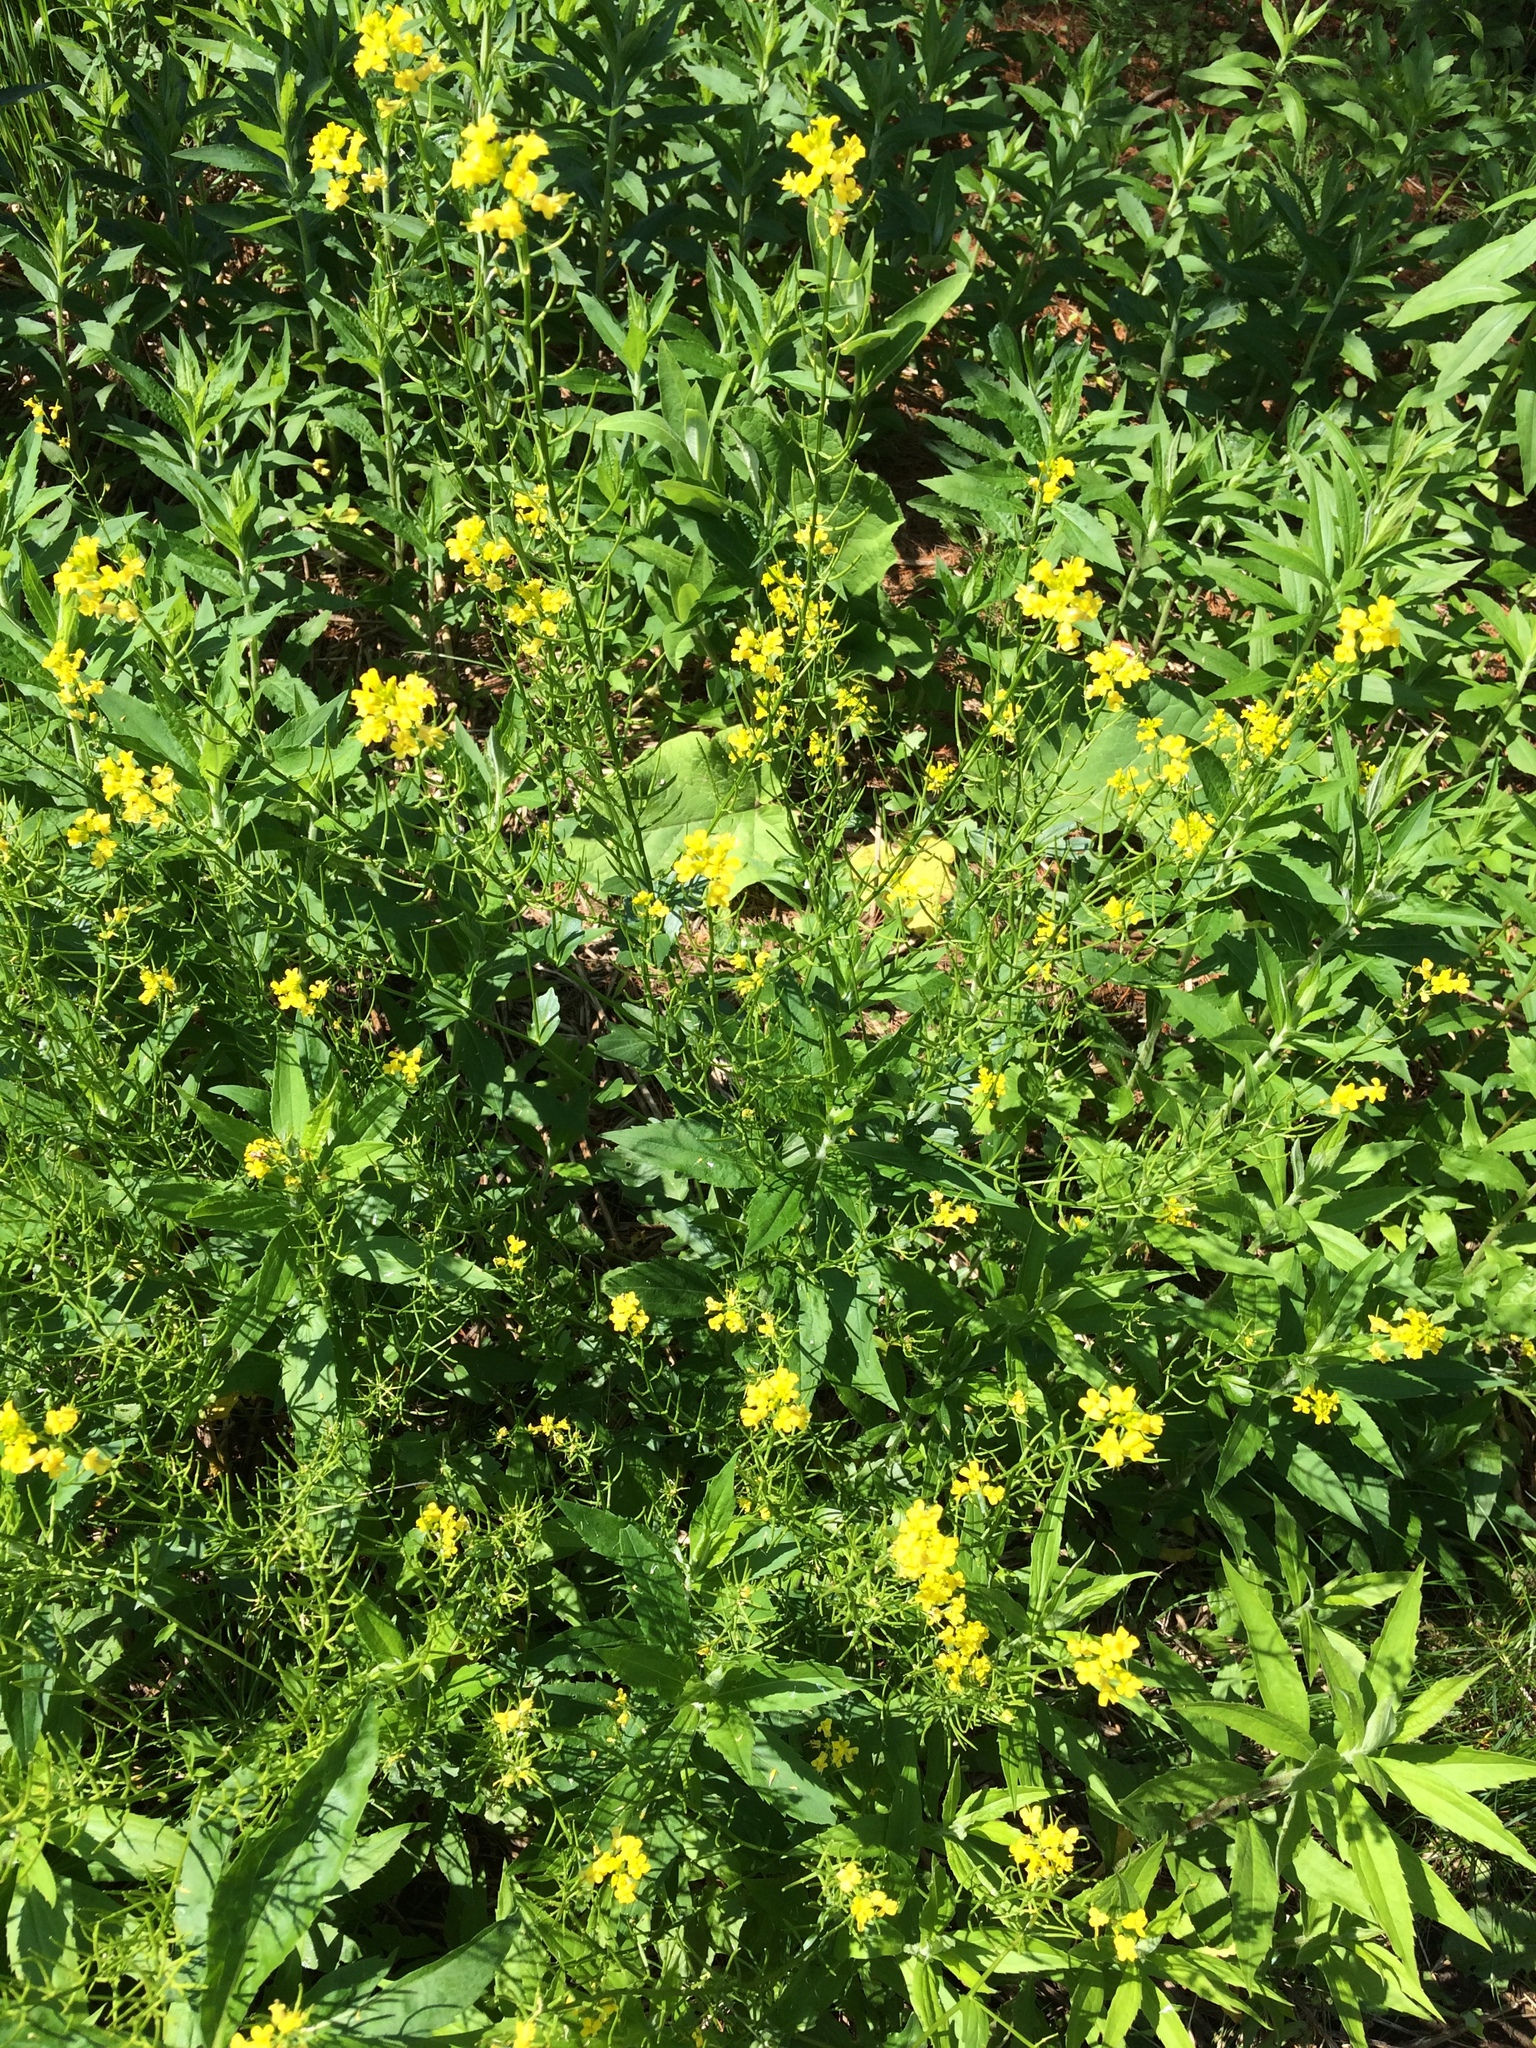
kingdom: Plantae
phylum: Tracheophyta
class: Magnoliopsida
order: Brassicales
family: Brassicaceae
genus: Barbarea
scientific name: Barbarea vulgaris
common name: Cressy-greens
